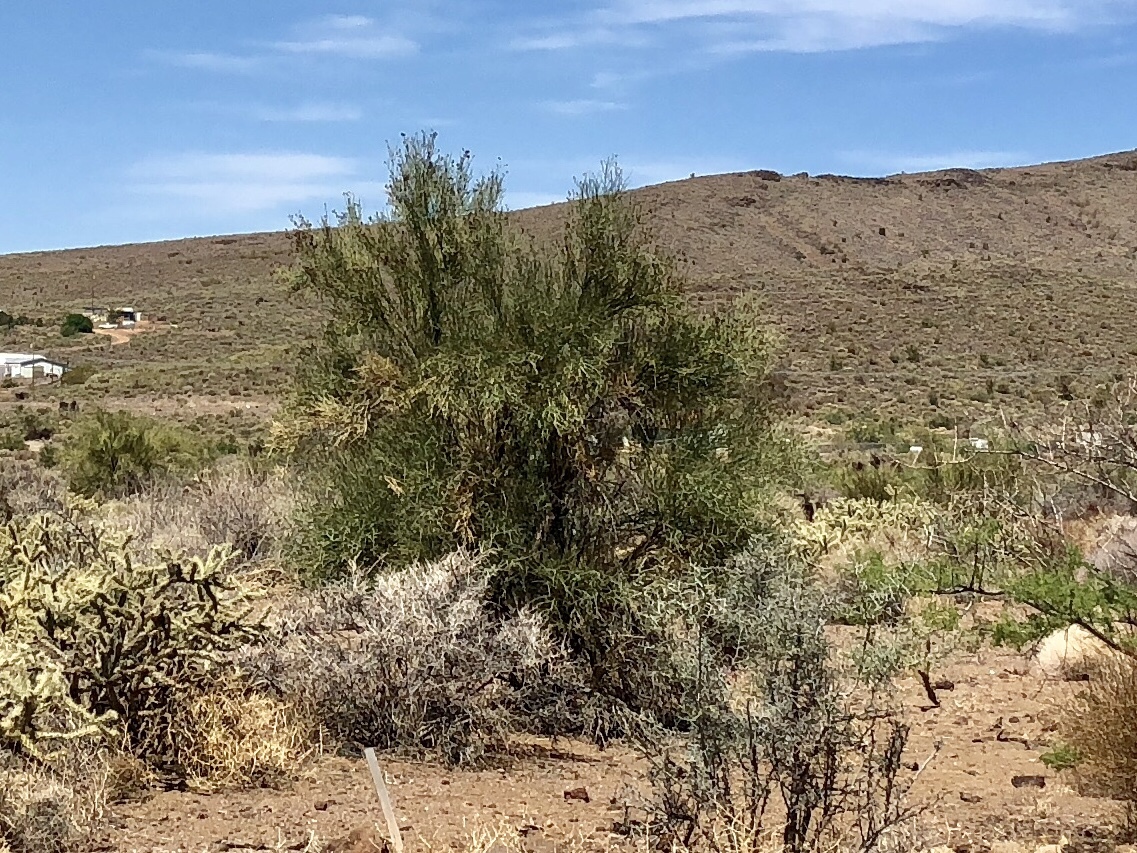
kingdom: Plantae
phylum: Tracheophyta
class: Magnoliopsida
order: Celastrales
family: Celastraceae
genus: Canotia
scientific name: Canotia holacantha
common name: Crucifixion thorns
